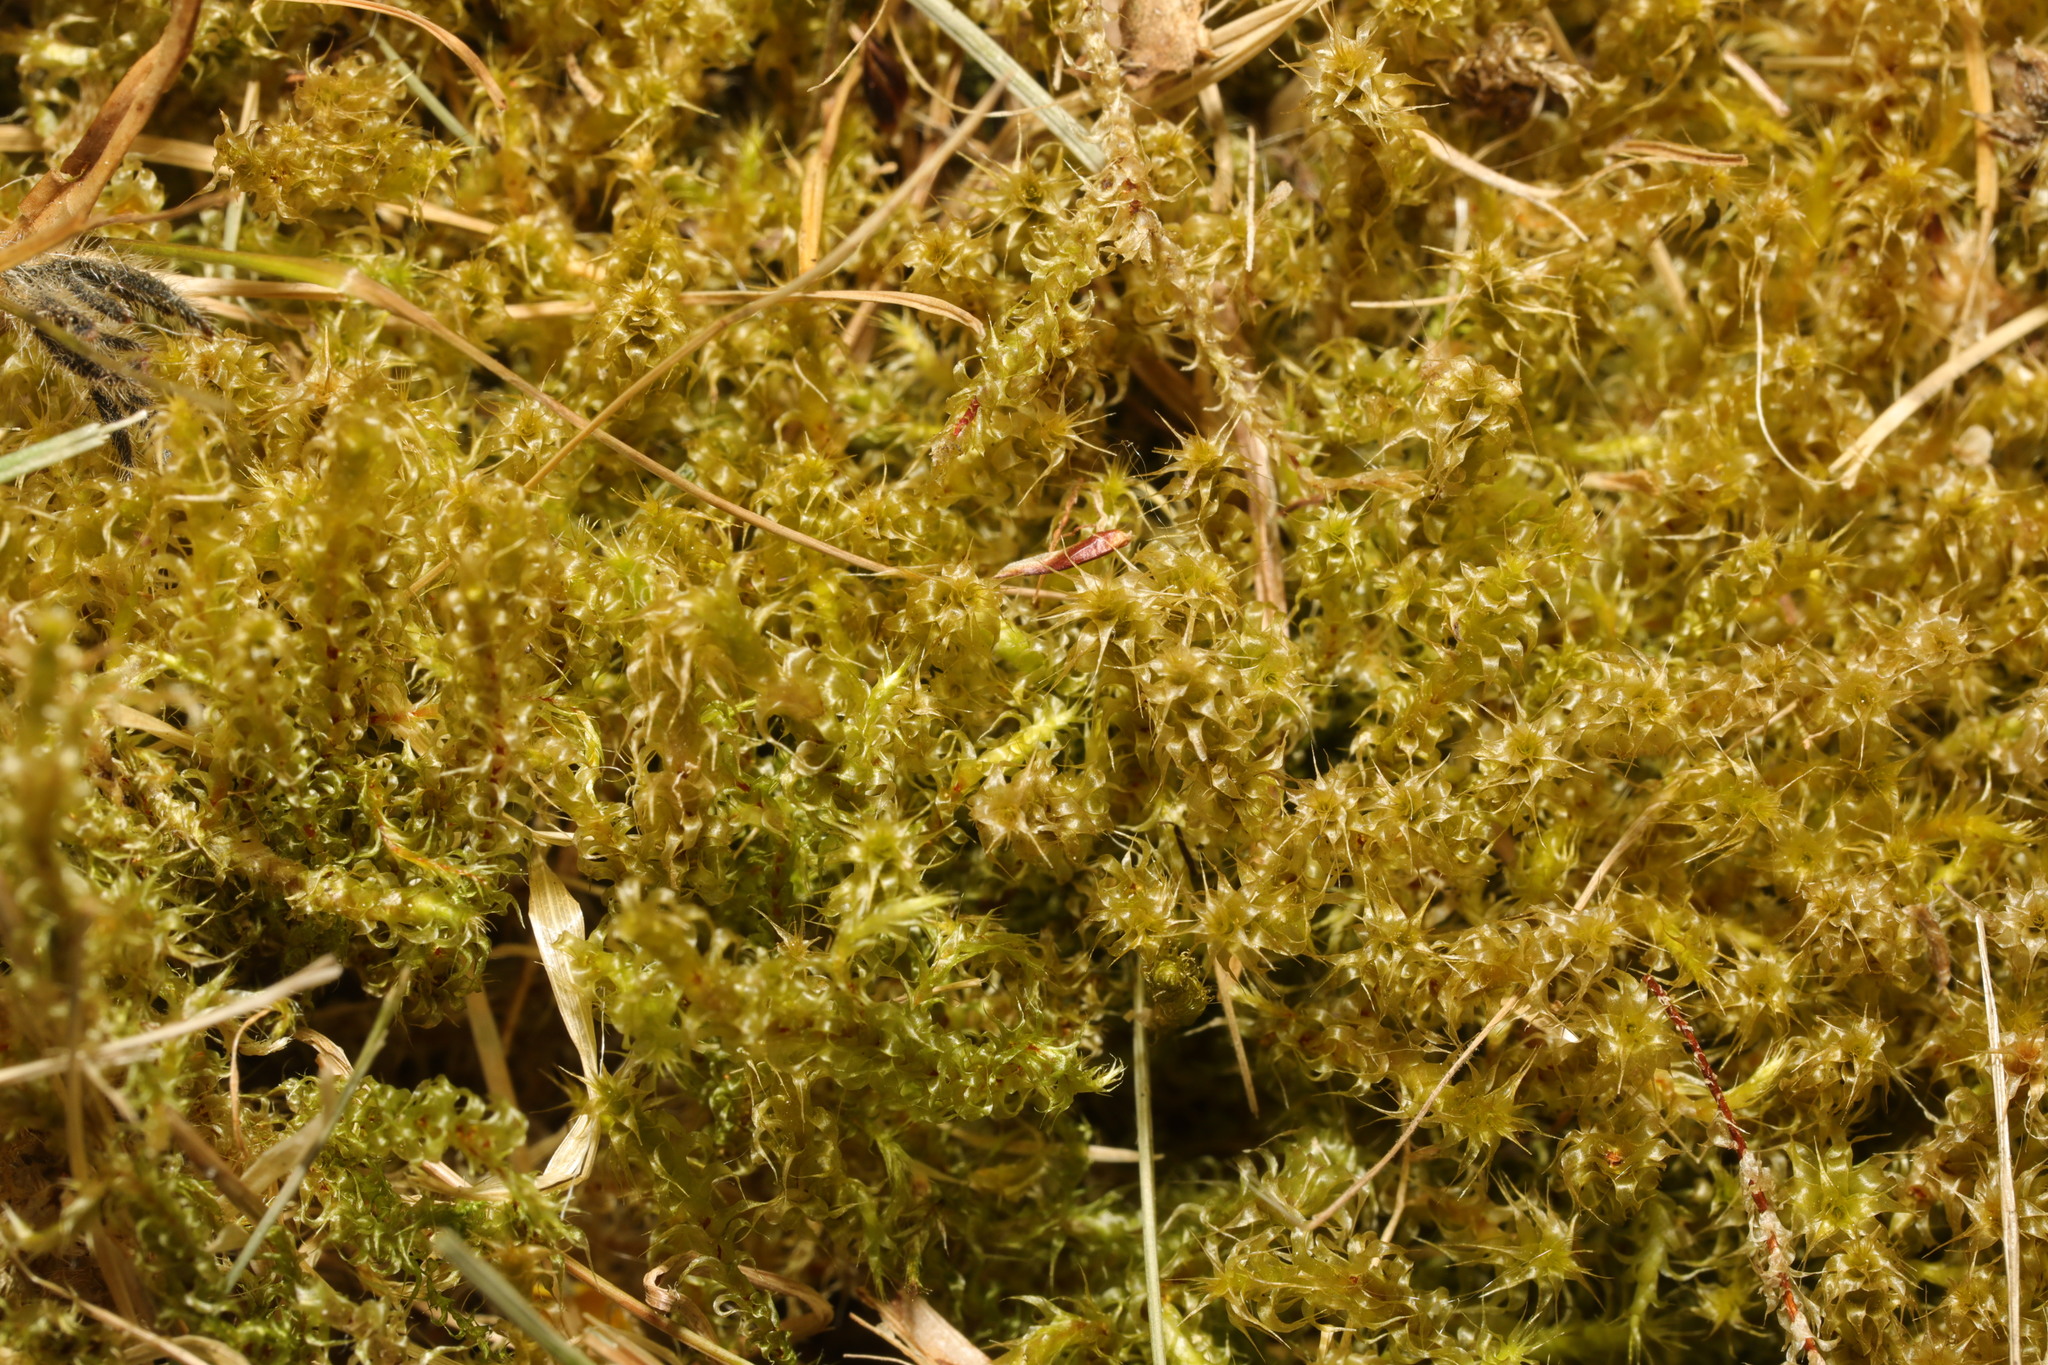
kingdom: Plantae
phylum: Bryophyta
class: Bryopsida
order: Hypnales
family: Hylocomiaceae
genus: Rhytidiadelphus
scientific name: Rhytidiadelphus squarrosus
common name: Springy turf-moss
